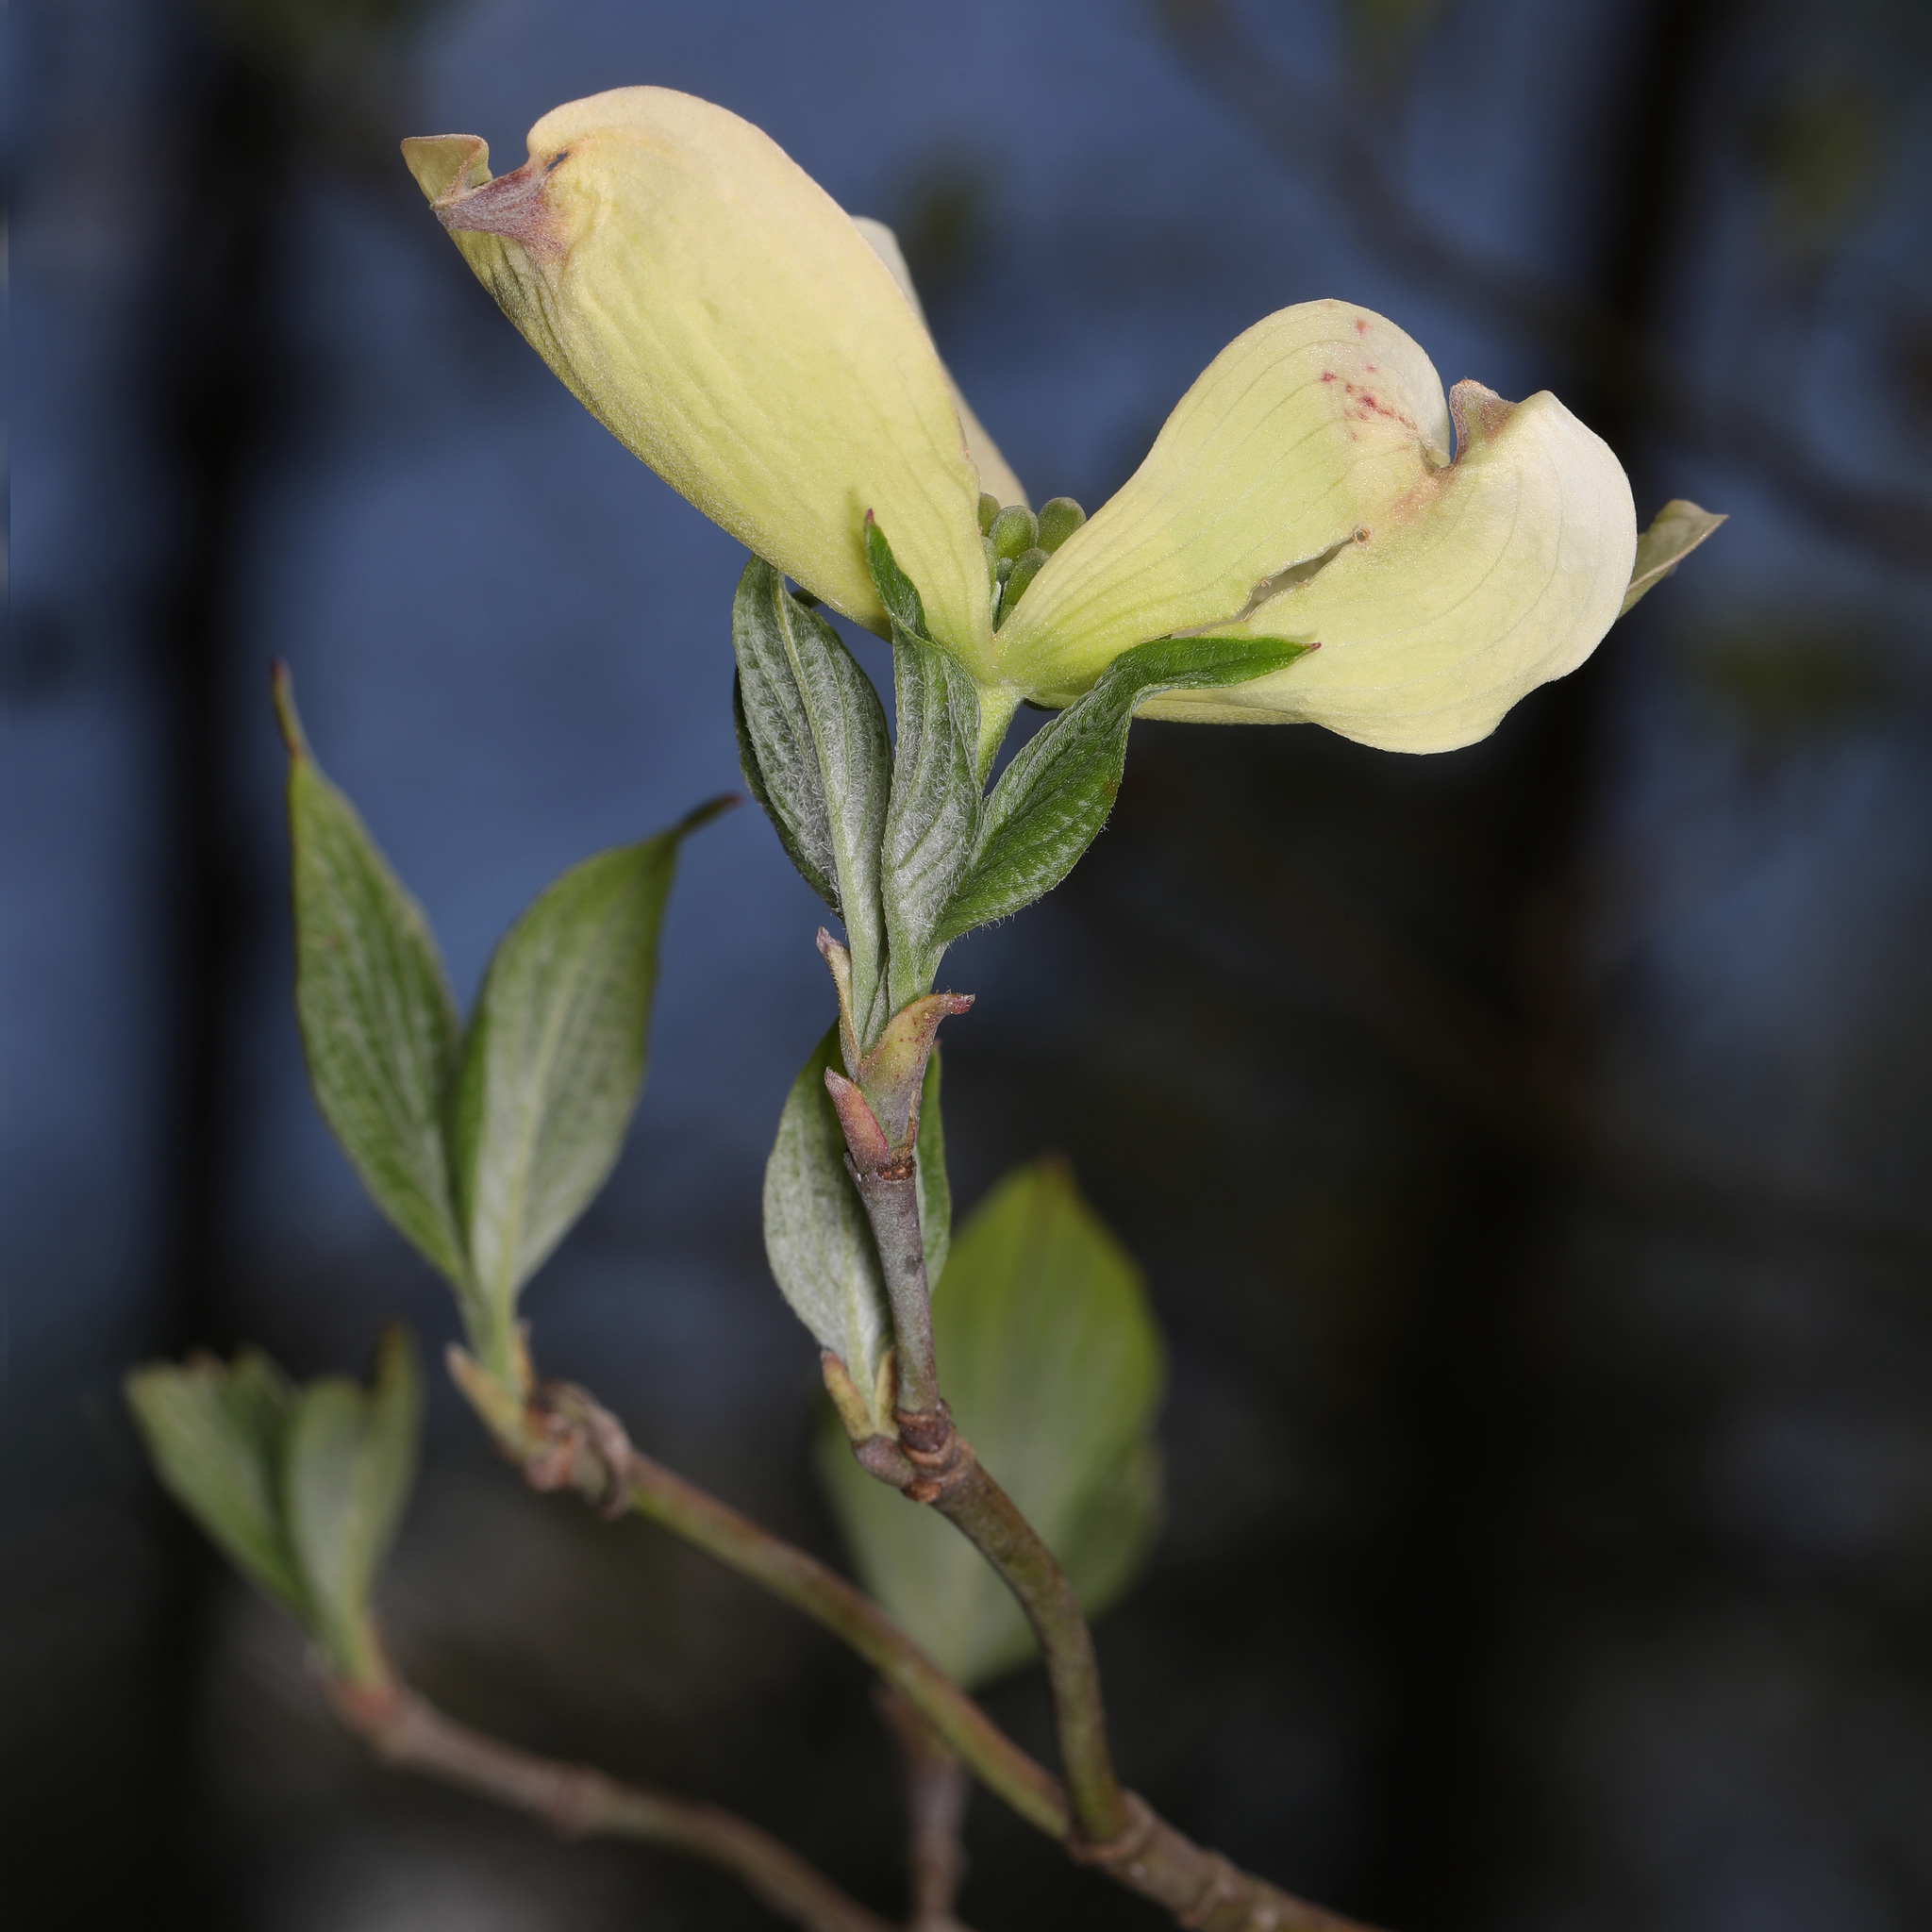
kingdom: Plantae
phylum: Tracheophyta
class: Magnoliopsida
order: Cornales
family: Cornaceae
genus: Cornus
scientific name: Cornus florida
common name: Flowering dogwood
